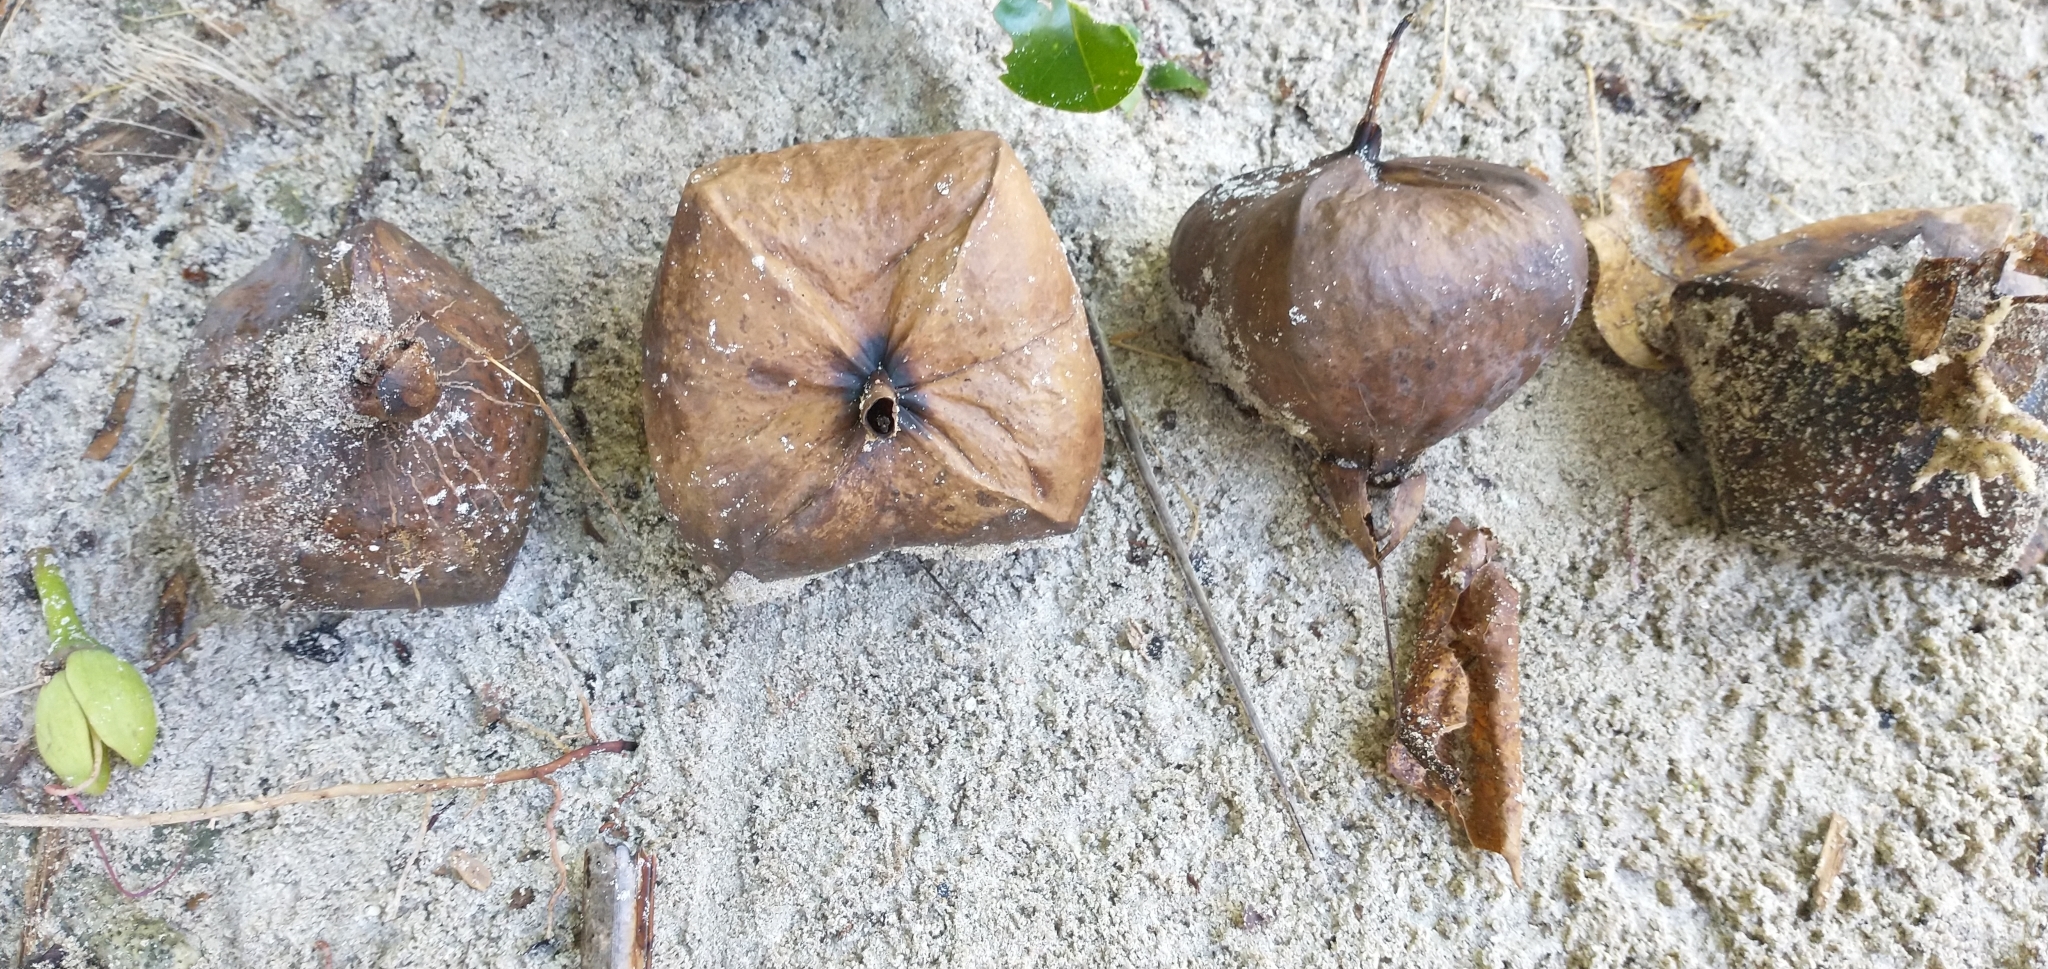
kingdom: Plantae
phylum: Tracheophyta
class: Magnoliopsida
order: Ericales
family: Lecythidaceae
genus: Barringtonia
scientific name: Barringtonia asiatica
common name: Mango-pine
